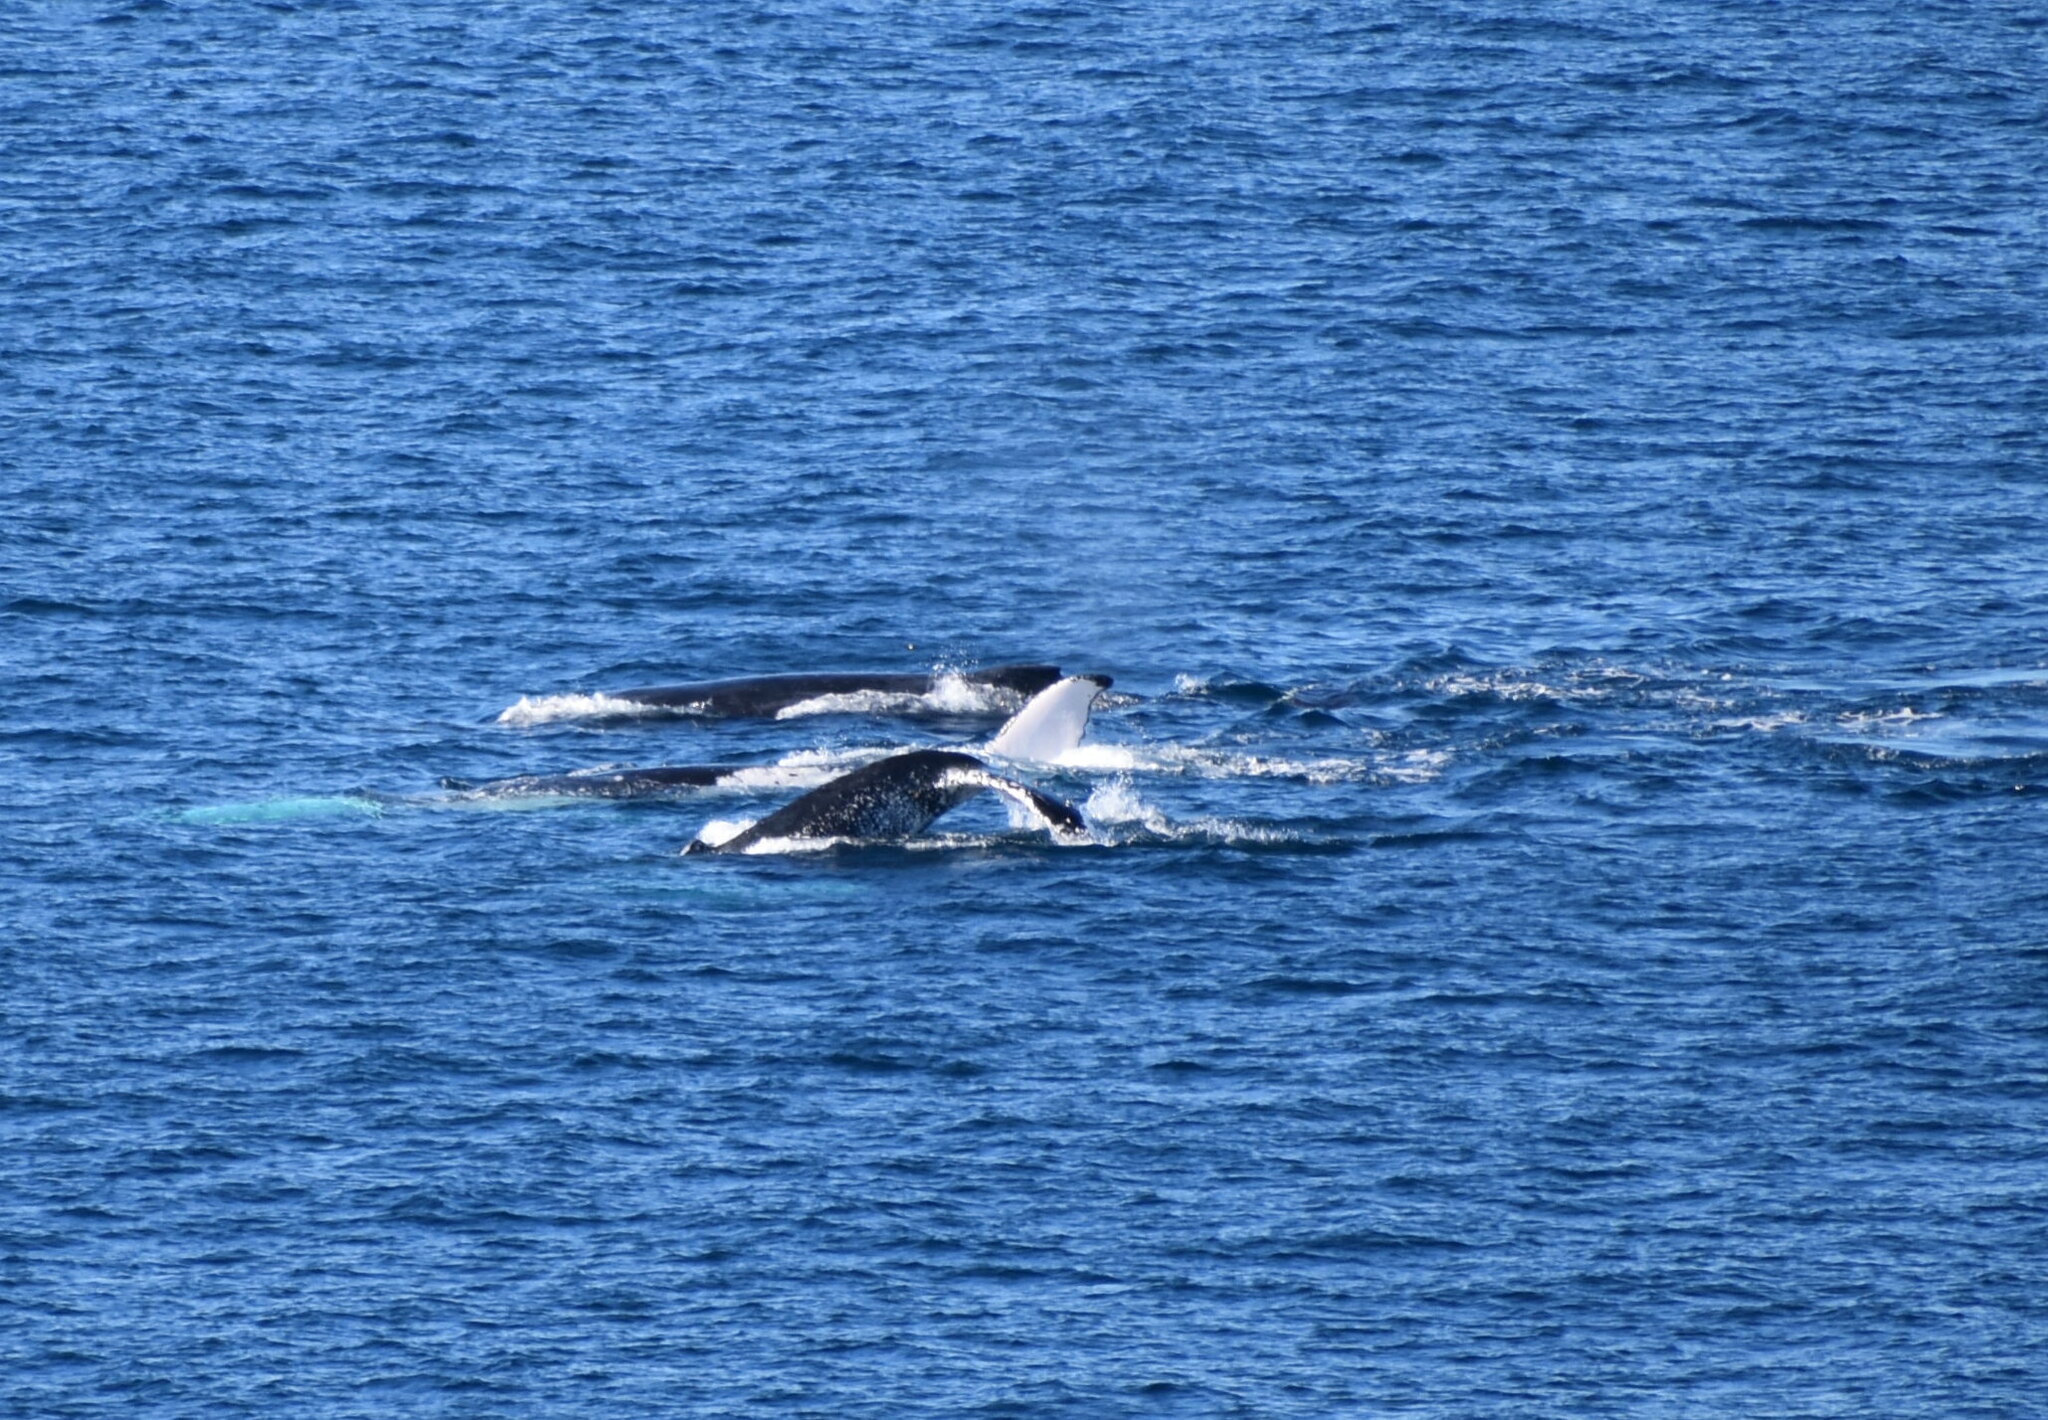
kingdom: Animalia
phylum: Chordata
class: Mammalia
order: Cetacea
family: Balaenopteridae
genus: Megaptera
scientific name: Megaptera novaeangliae
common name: Humpback whale
